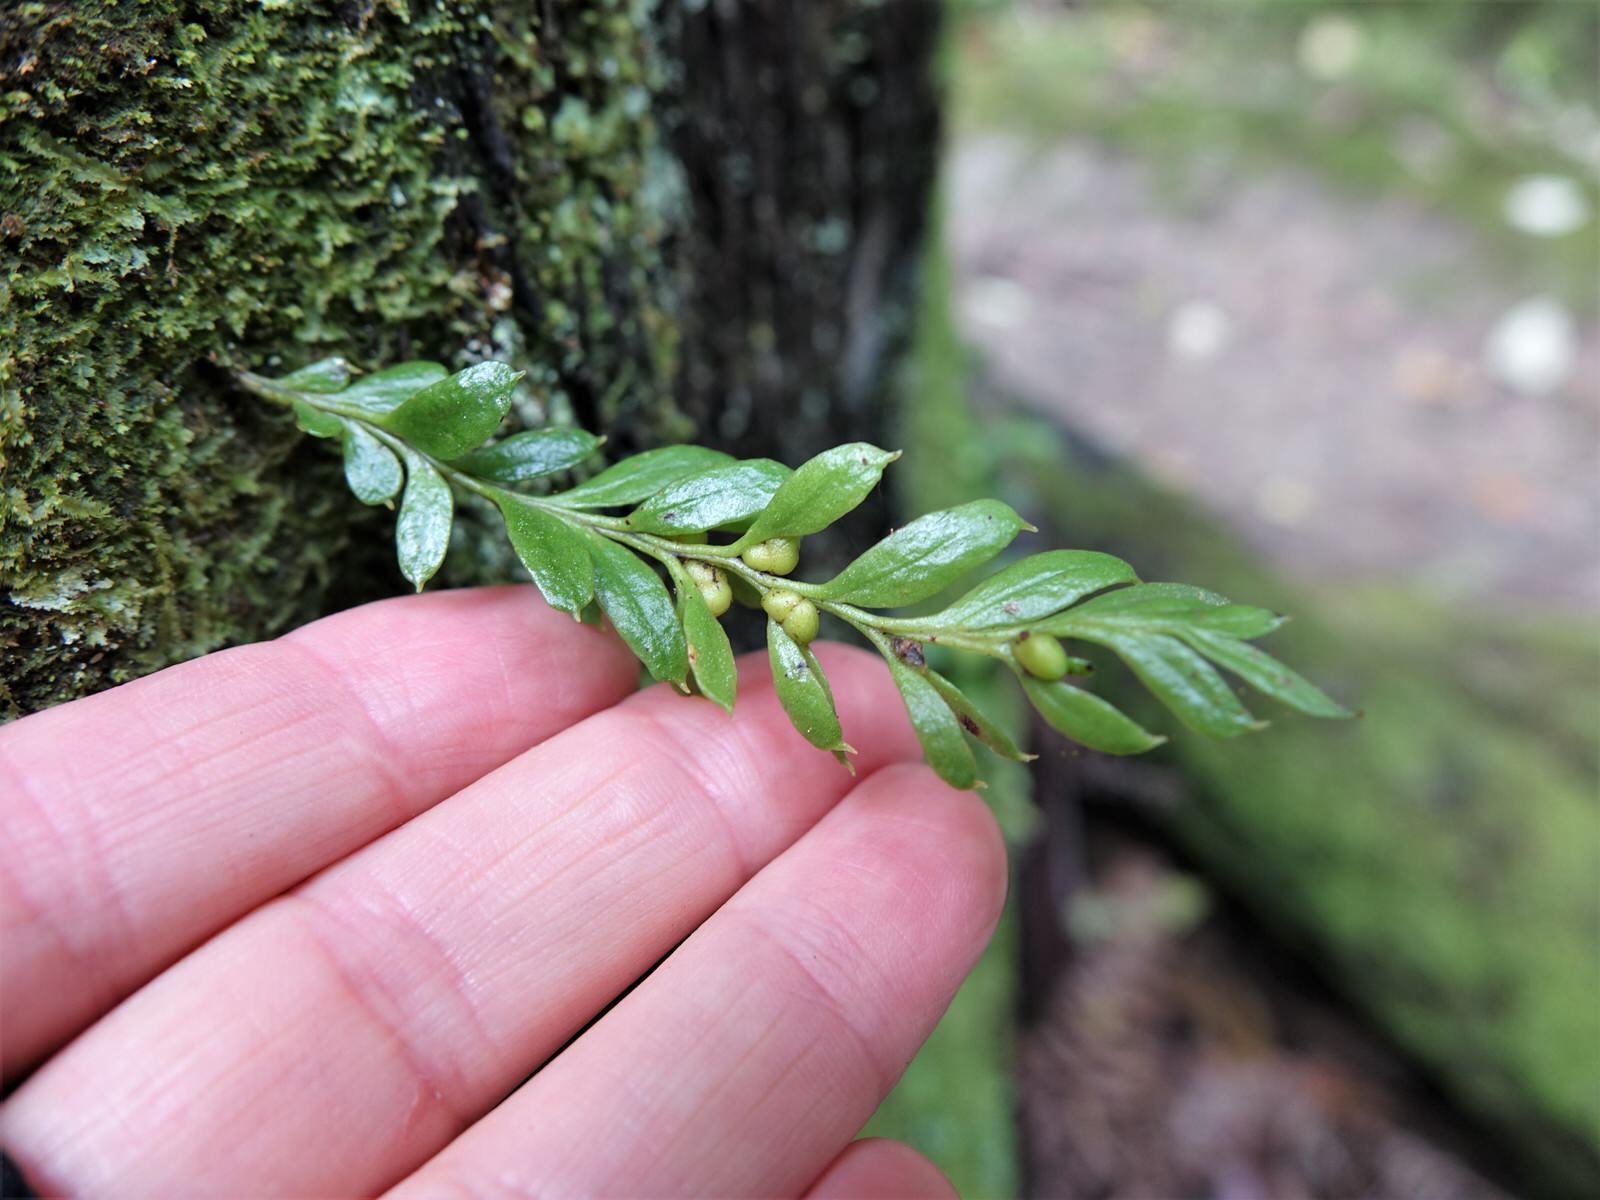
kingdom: Plantae
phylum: Tracheophyta
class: Polypodiopsida
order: Psilotales
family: Psilotaceae
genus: Tmesipteris
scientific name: Tmesipteris lanceolata
